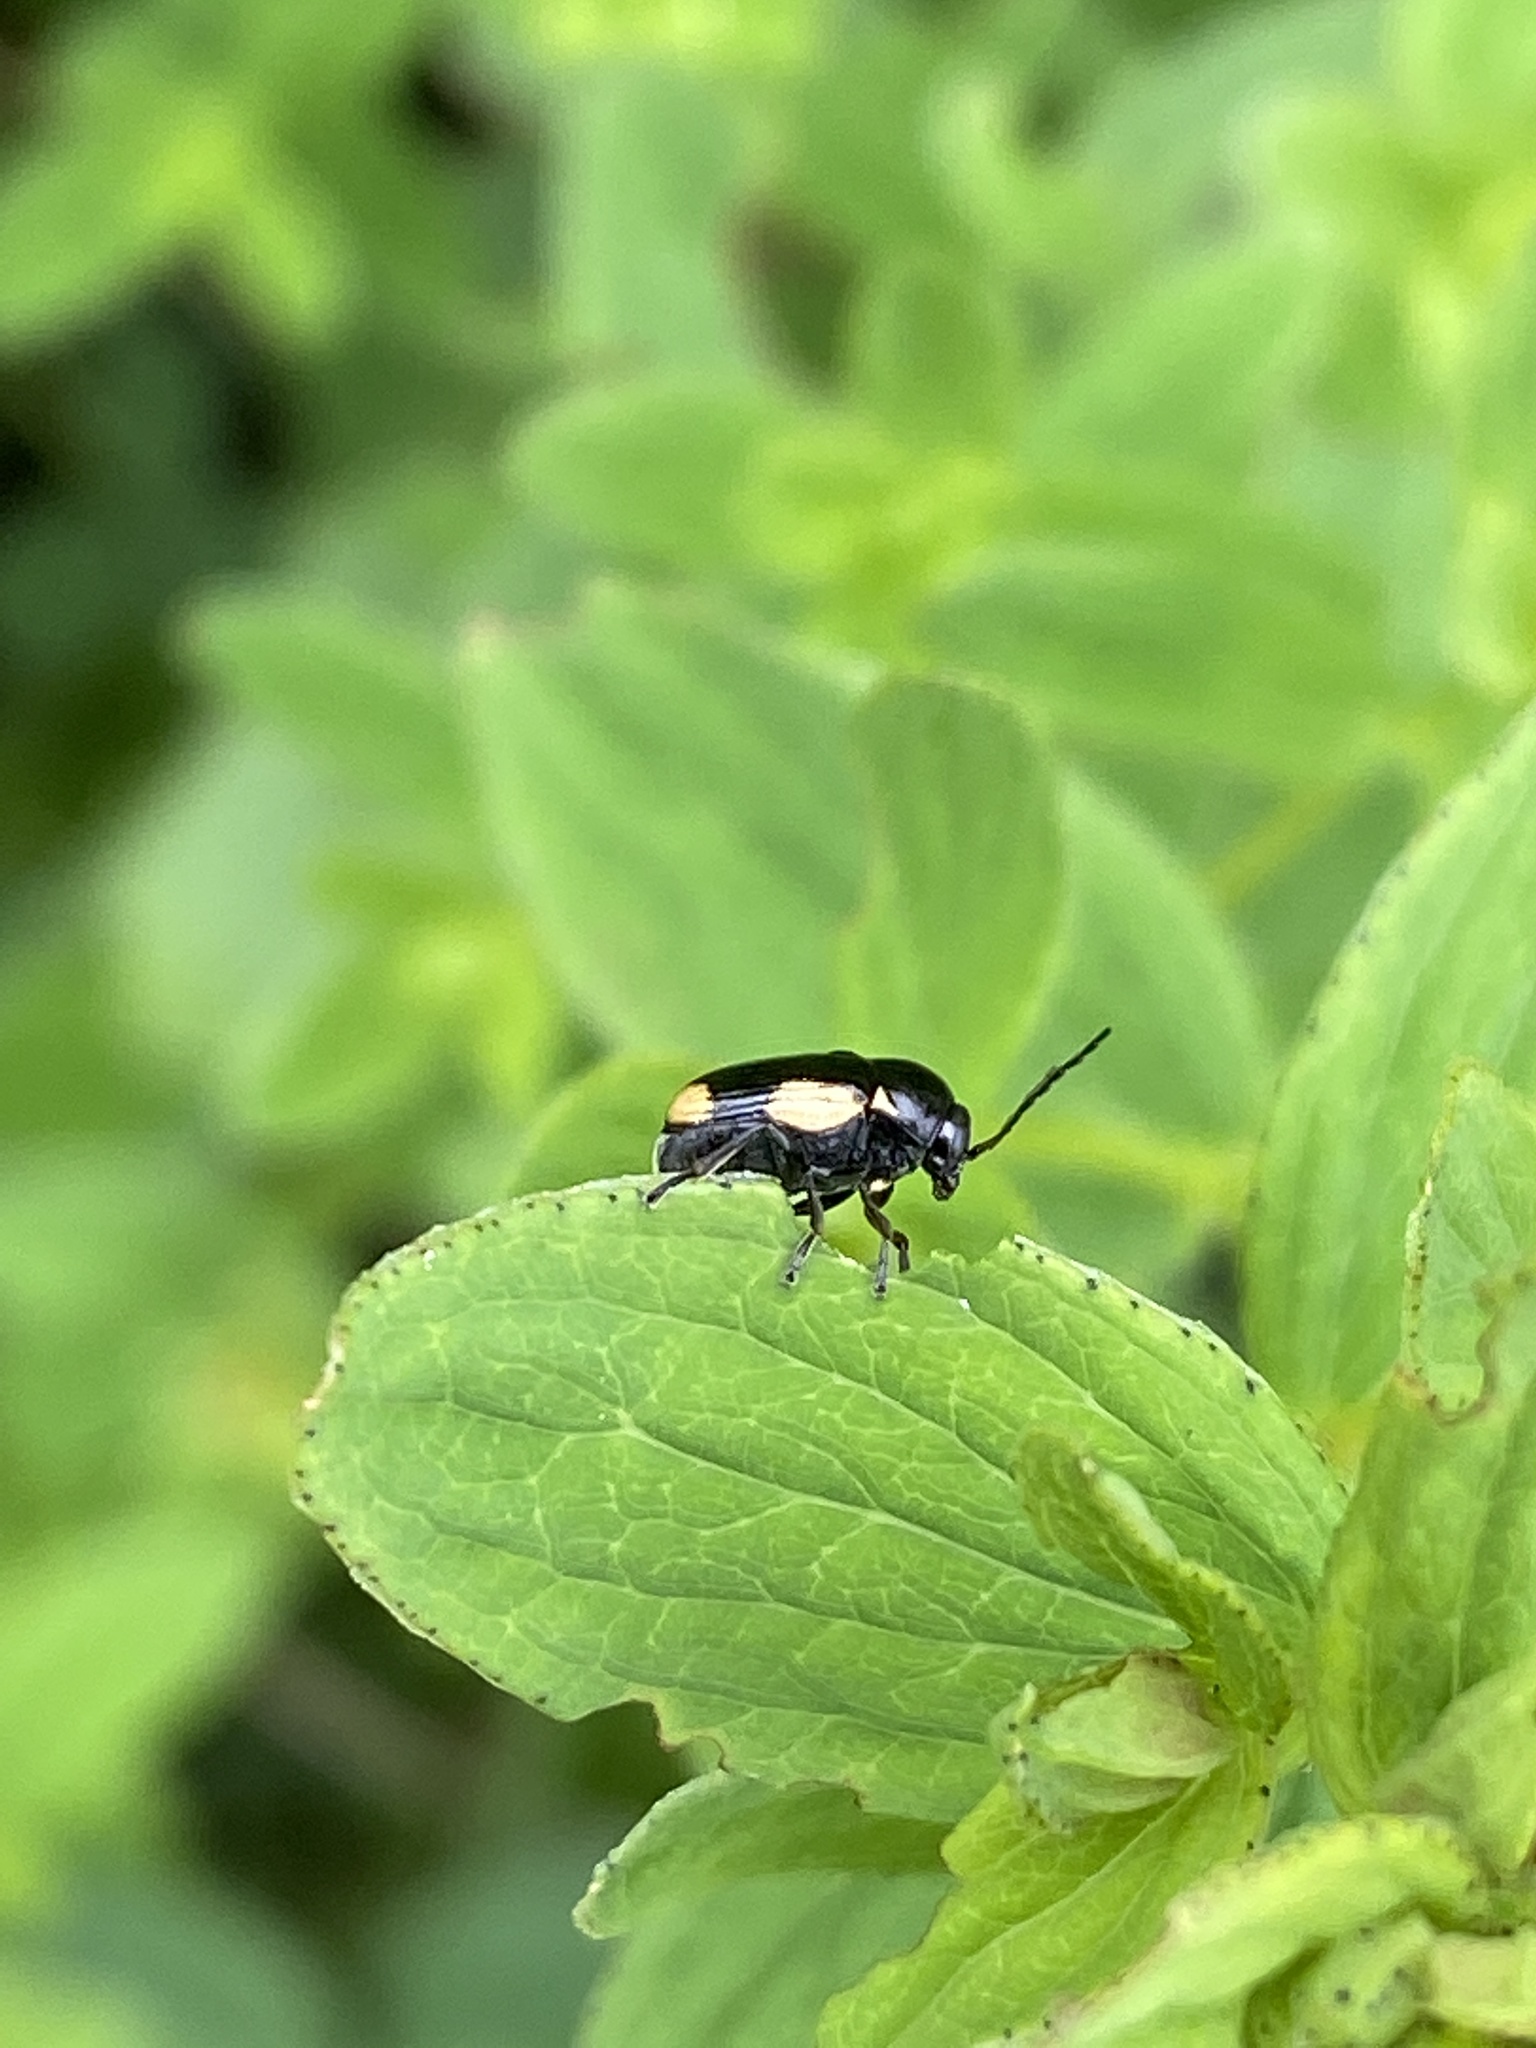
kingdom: Animalia
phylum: Arthropoda
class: Insecta
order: Coleoptera
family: Chrysomelidae
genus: Cryptocephalus
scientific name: Cryptocephalus moraei
